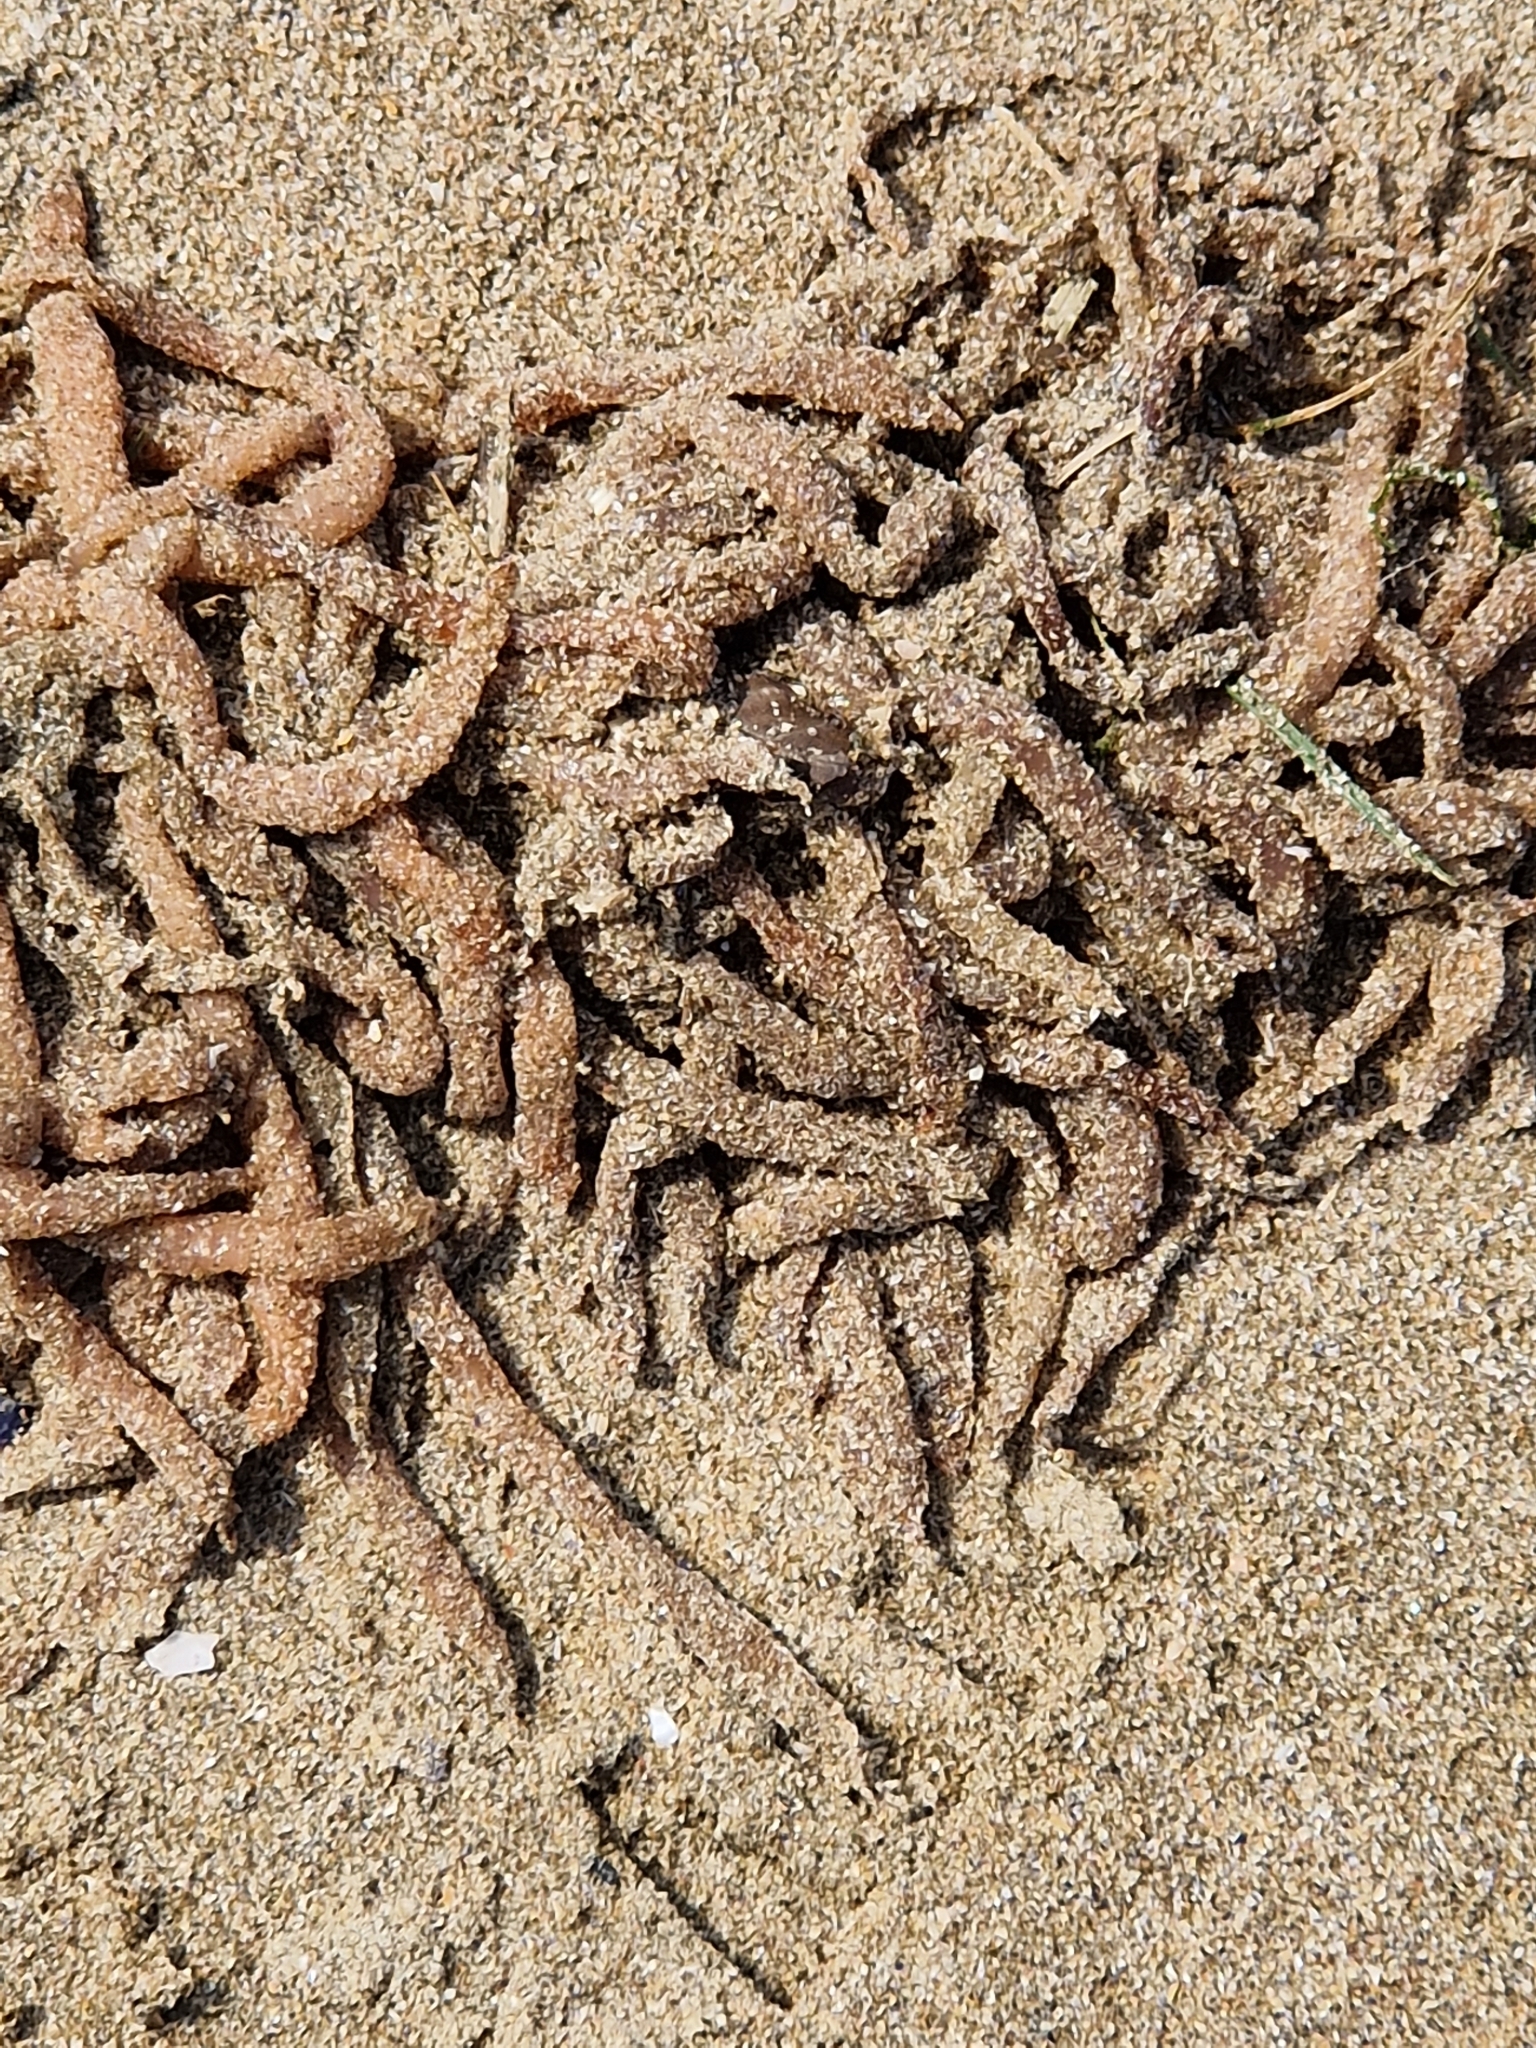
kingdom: Animalia
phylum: Mollusca
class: Cephalopoda
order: Myopsida
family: Loliginidae
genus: Loligo
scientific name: Loligo vulgaris
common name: European squid
